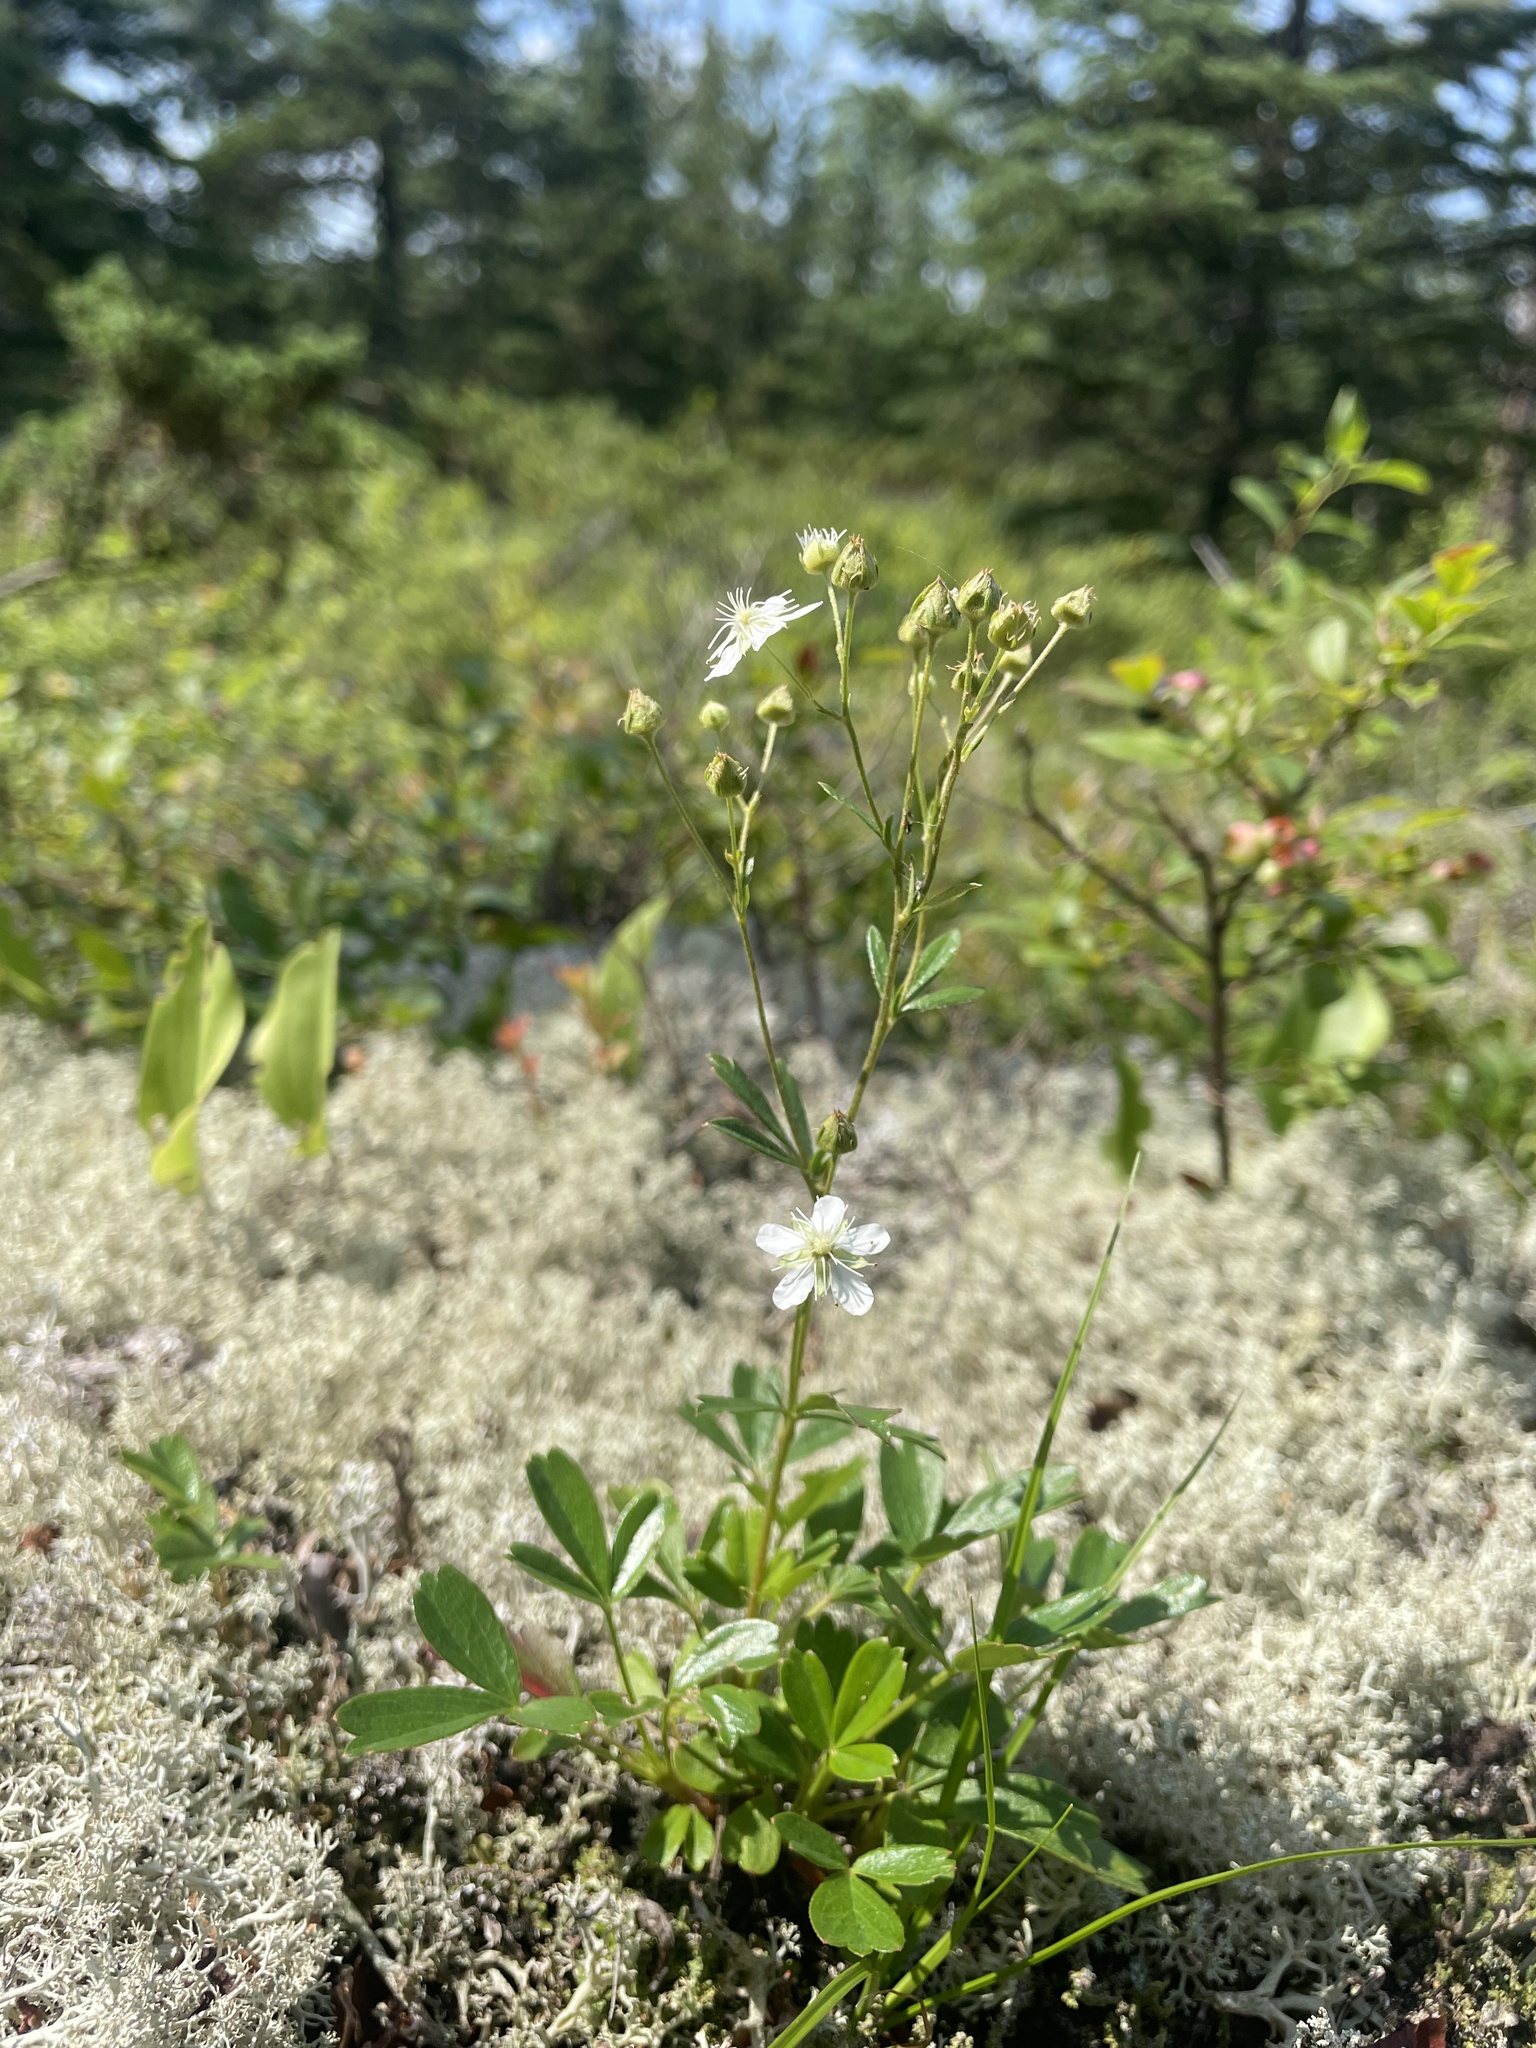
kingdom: Plantae
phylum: Tracheophyta
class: Magnoliopsida
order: Rosales
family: Rosaceae
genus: Sibbaldia
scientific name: Sibbaldia tridentata
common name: Three-toothed cinquefoil
